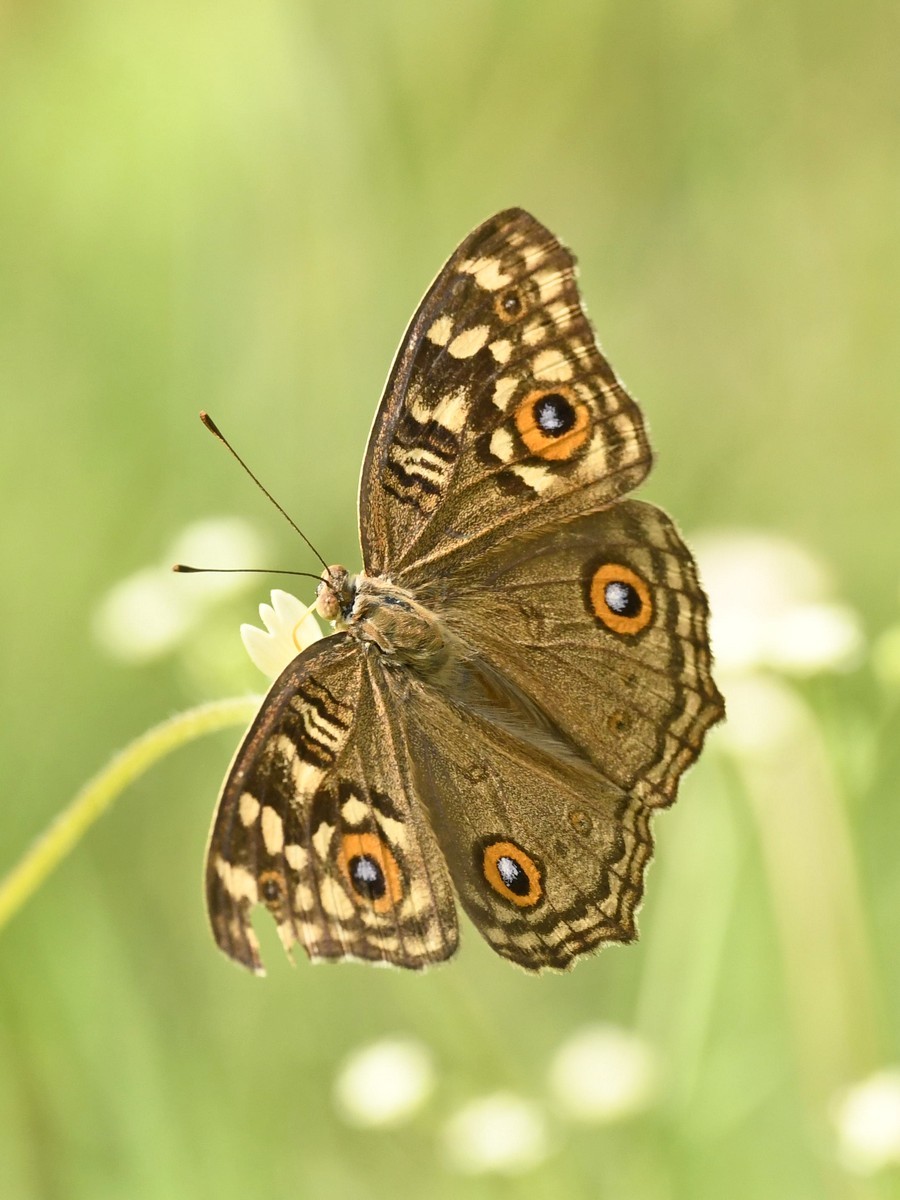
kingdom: Animalia
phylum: Arthropoda
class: Insecta
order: Lepidoptera
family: Nymphalidae
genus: Junonia
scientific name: Junonia lemonias
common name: Lemon pansy
